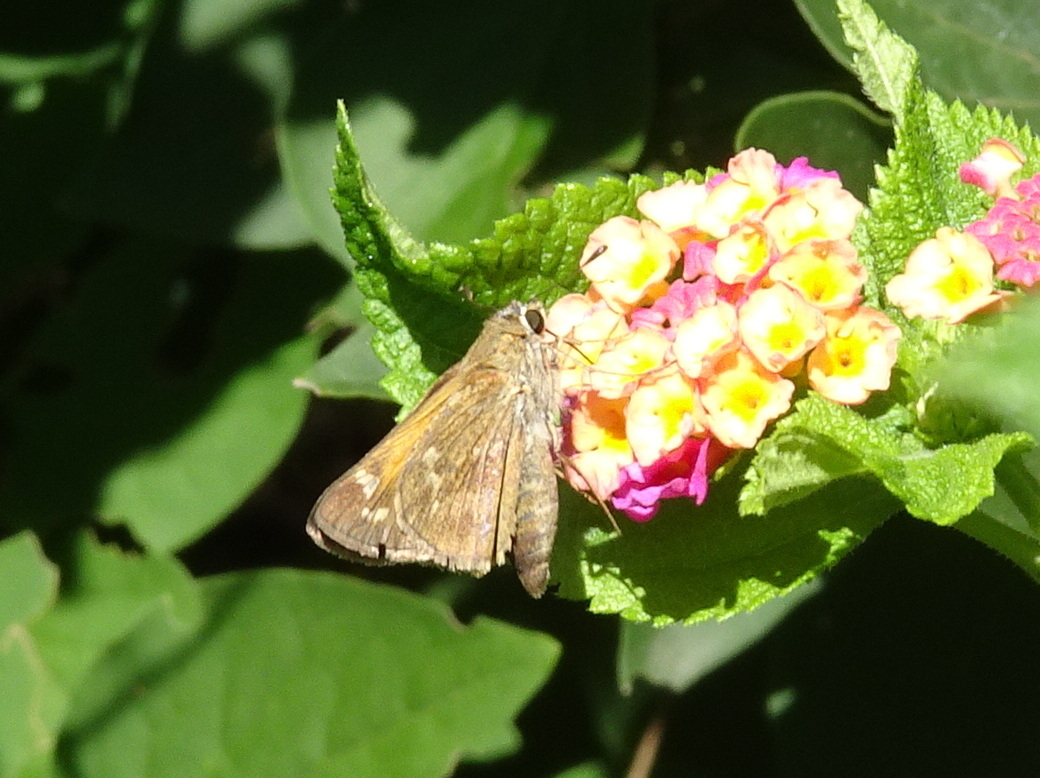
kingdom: Animalia
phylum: Arthropoda
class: Insecta
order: Lepidoptera
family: Hesperiidae
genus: Atalopedes
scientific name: Atalopedes
